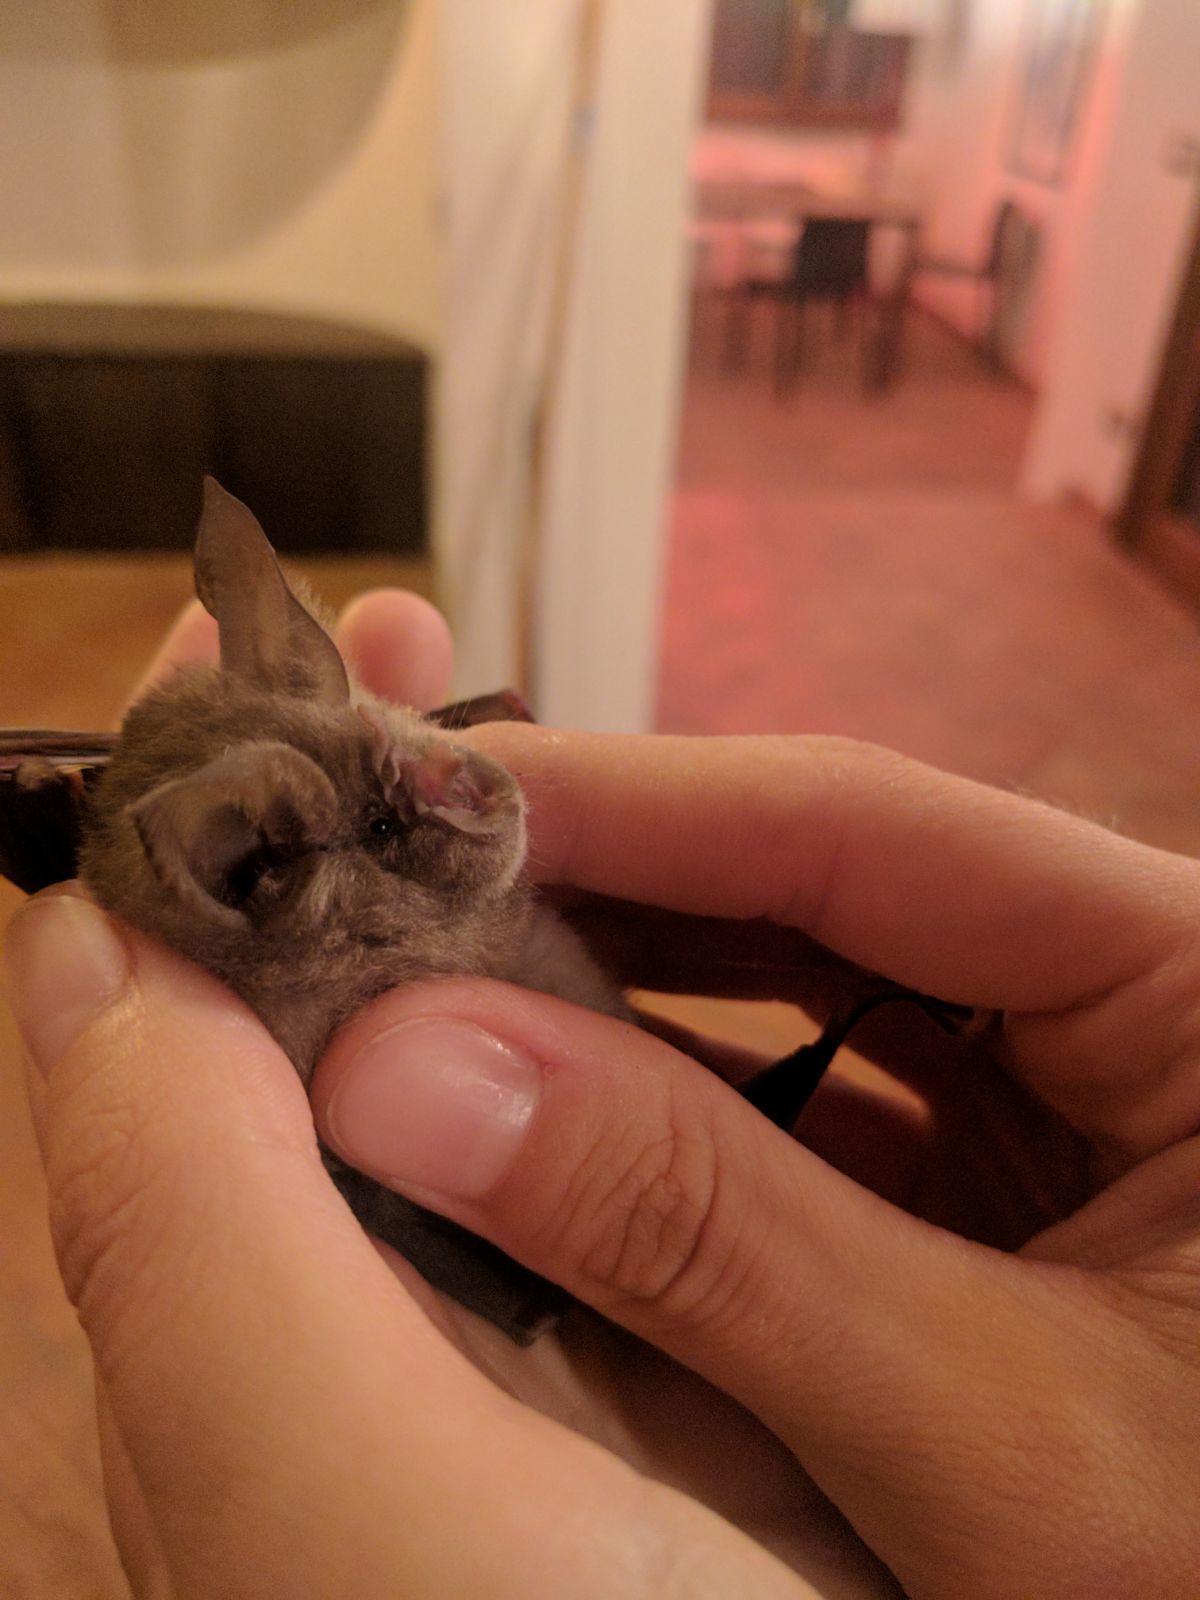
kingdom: Animalia
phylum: Chordata
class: Mammalia
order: Chiroptera
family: Rhinolophidae
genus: Rhinolophus
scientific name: Rhinolophus ferrumequinum
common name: Greater horseshoe bat
